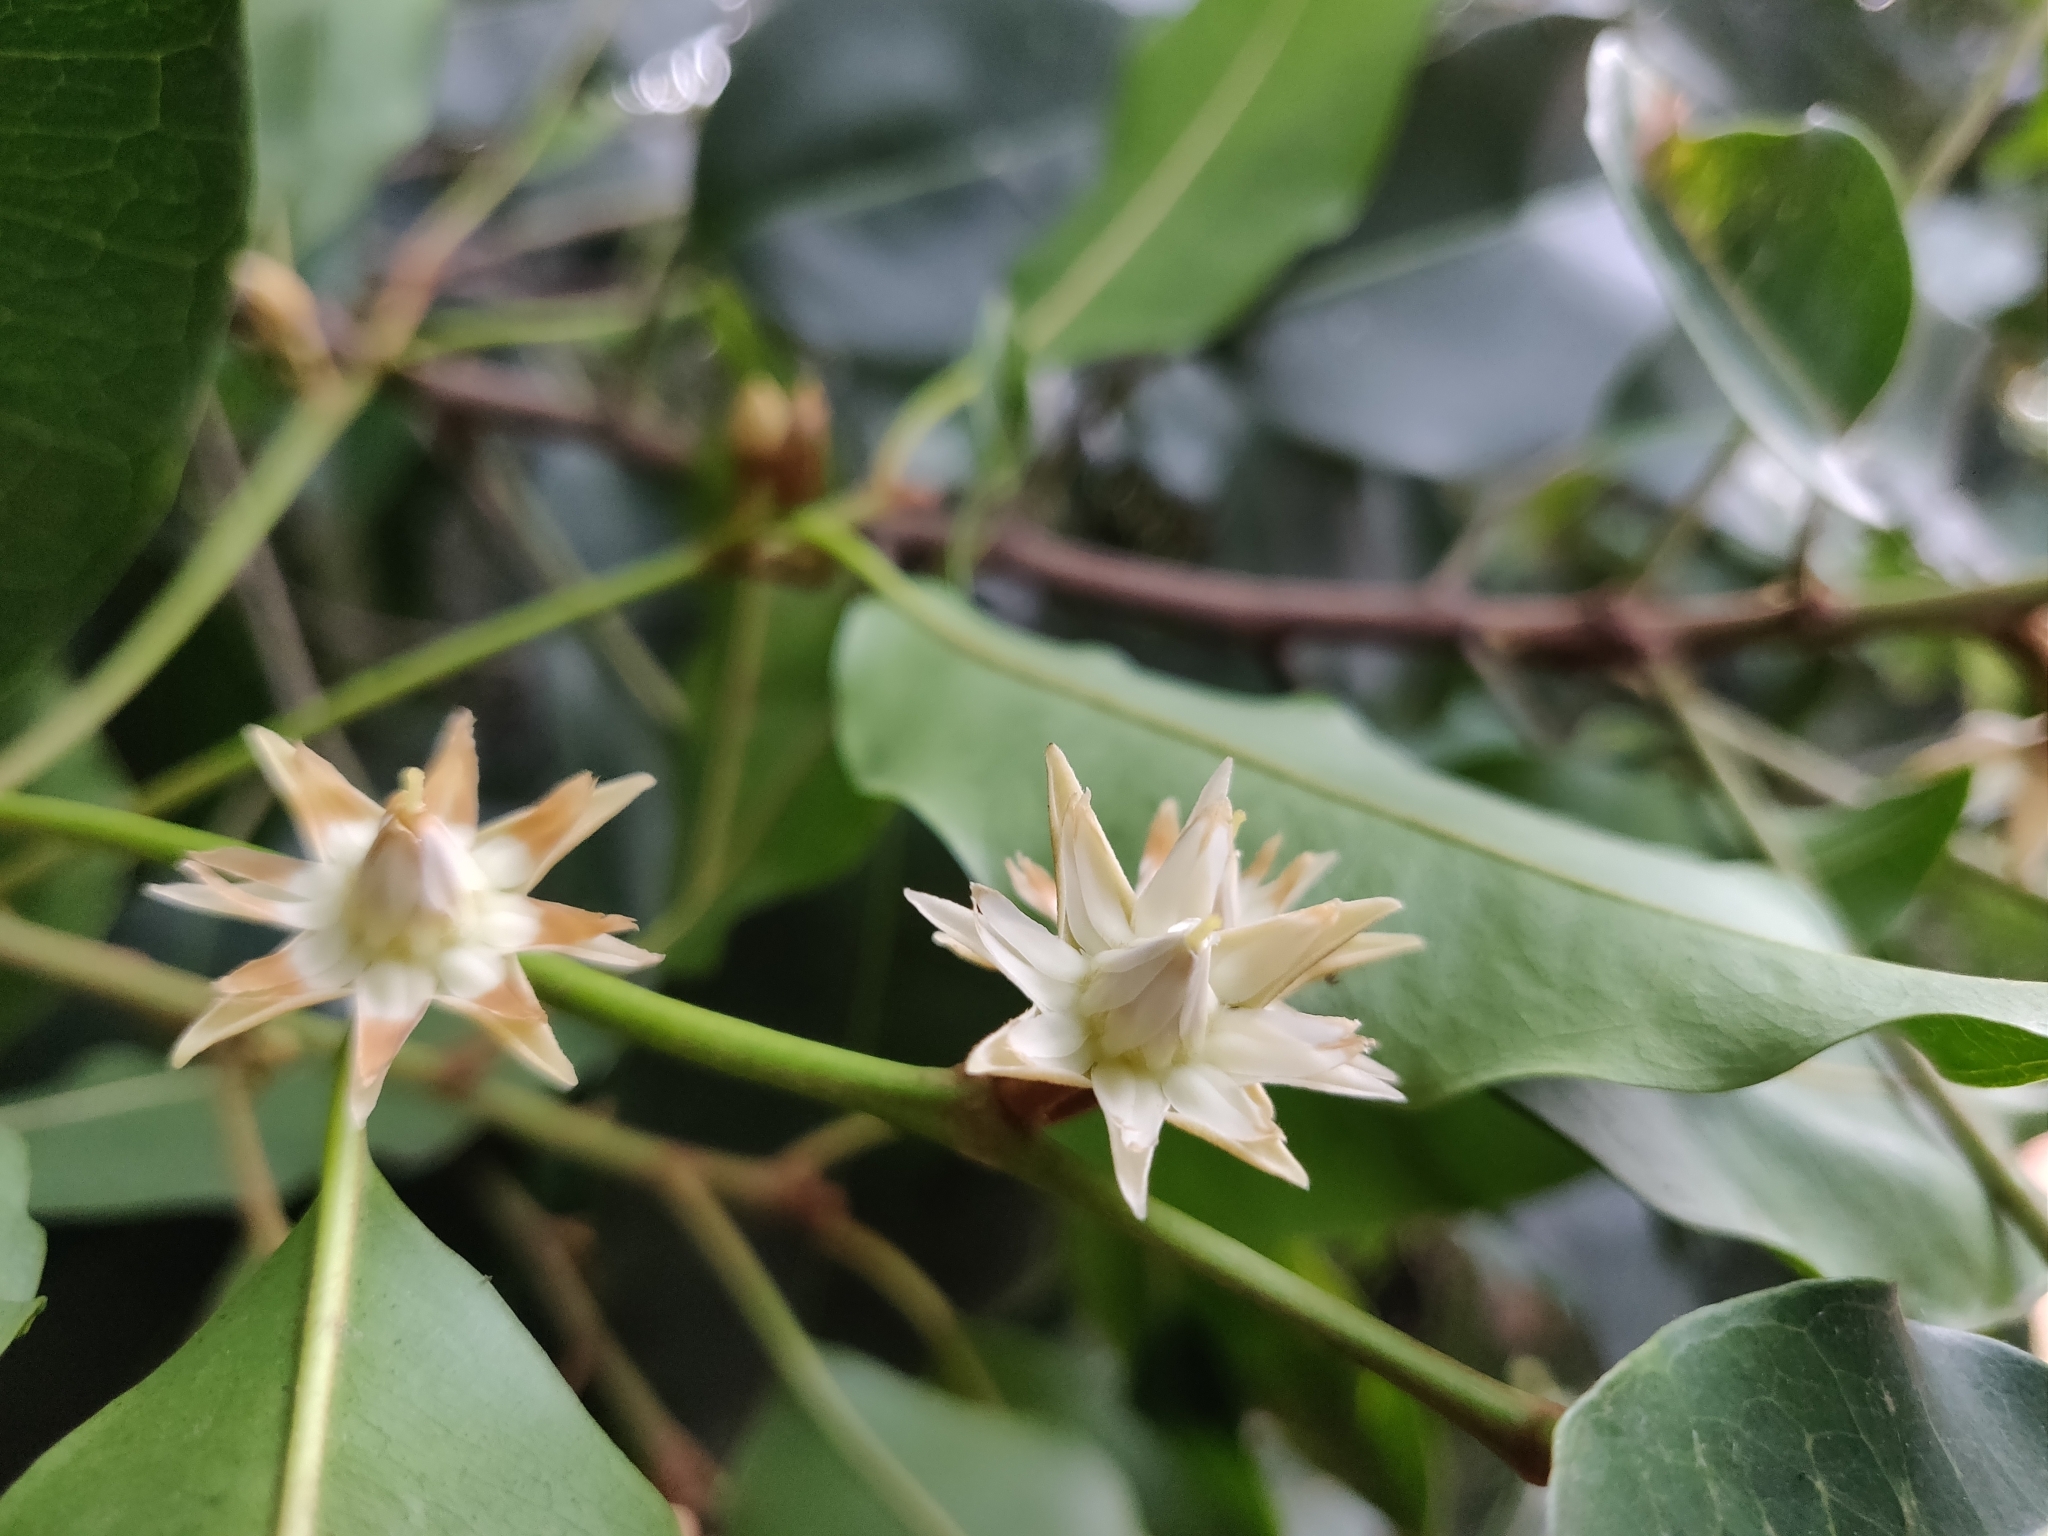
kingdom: Plantae
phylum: Tracheophyta
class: Magnoliopsida
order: Ericales
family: Sapotaceae
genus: Mimusops
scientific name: Mimusops elengi
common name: Spanish cherry
